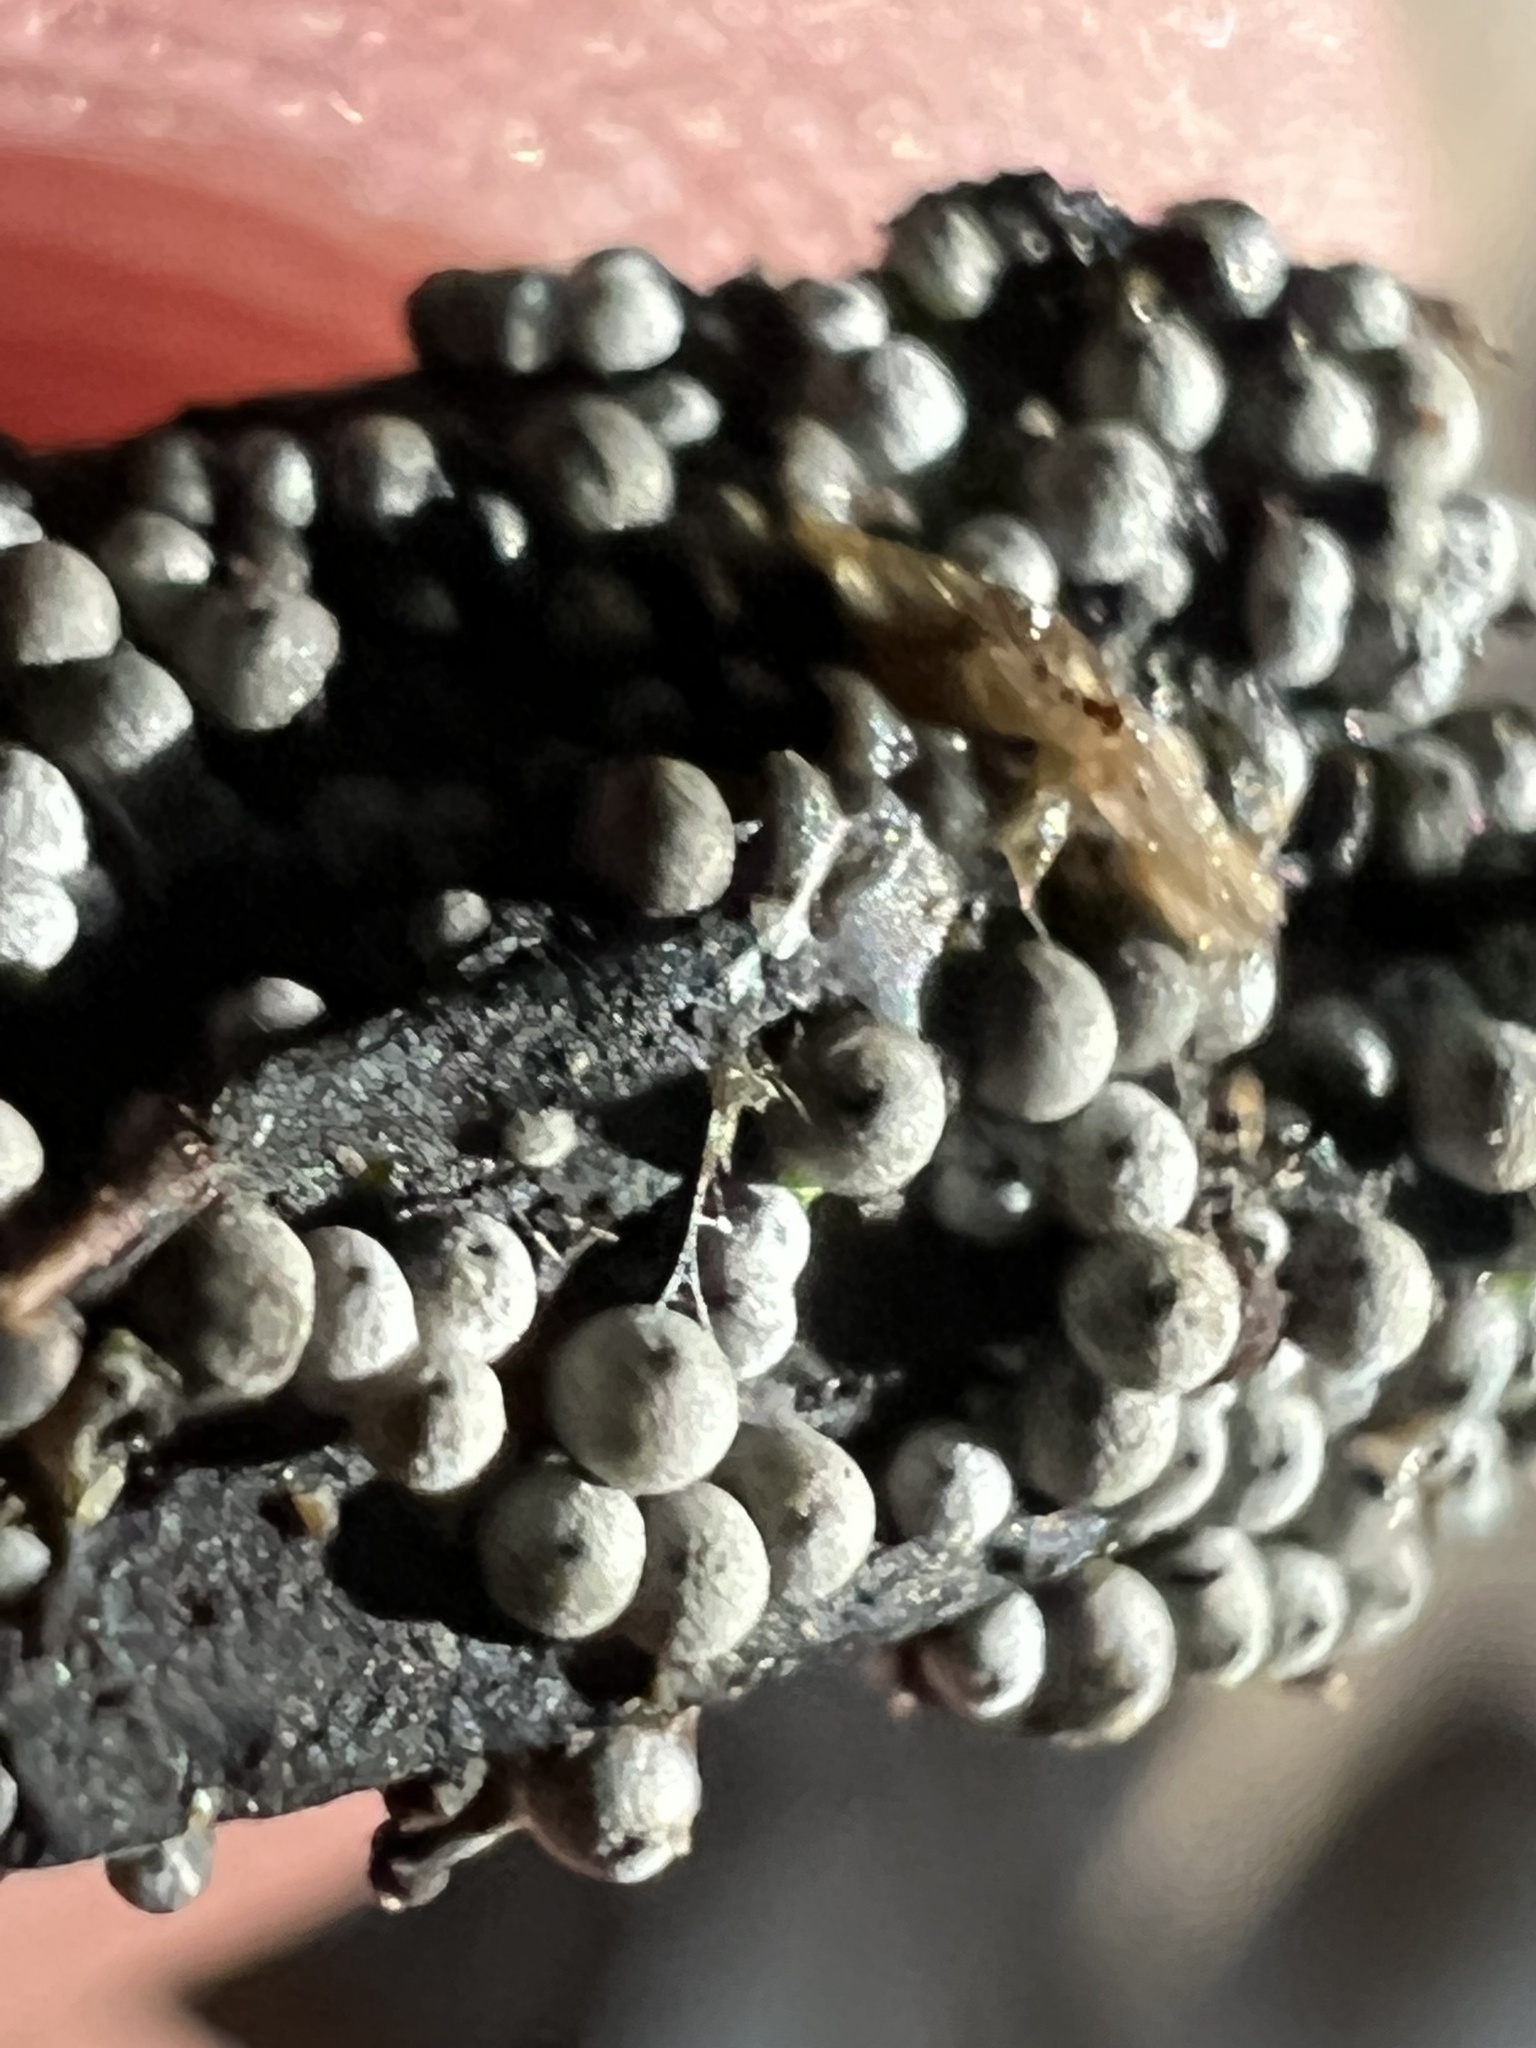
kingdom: Fungi
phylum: Ascomycota
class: Sordariomycetes
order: Sordariales
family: Lasiosphaeriaceae
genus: Lasiosphaeria
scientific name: Lasiosphaeria
